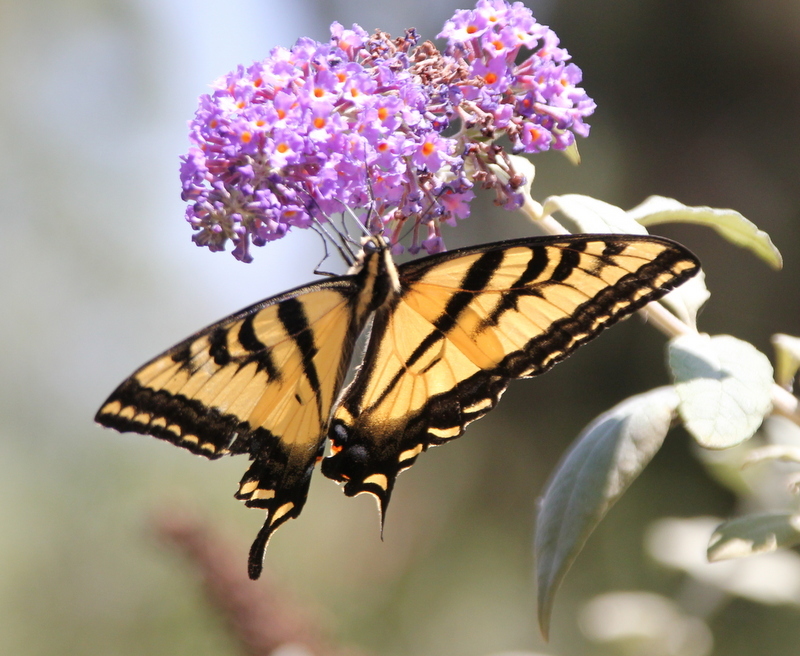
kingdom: Animalia
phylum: Arthropoda
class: Insecta
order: Lepidoptera
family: Papilionidae
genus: Papilio
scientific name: Papilio rutulus
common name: Western tiger swallowtail
